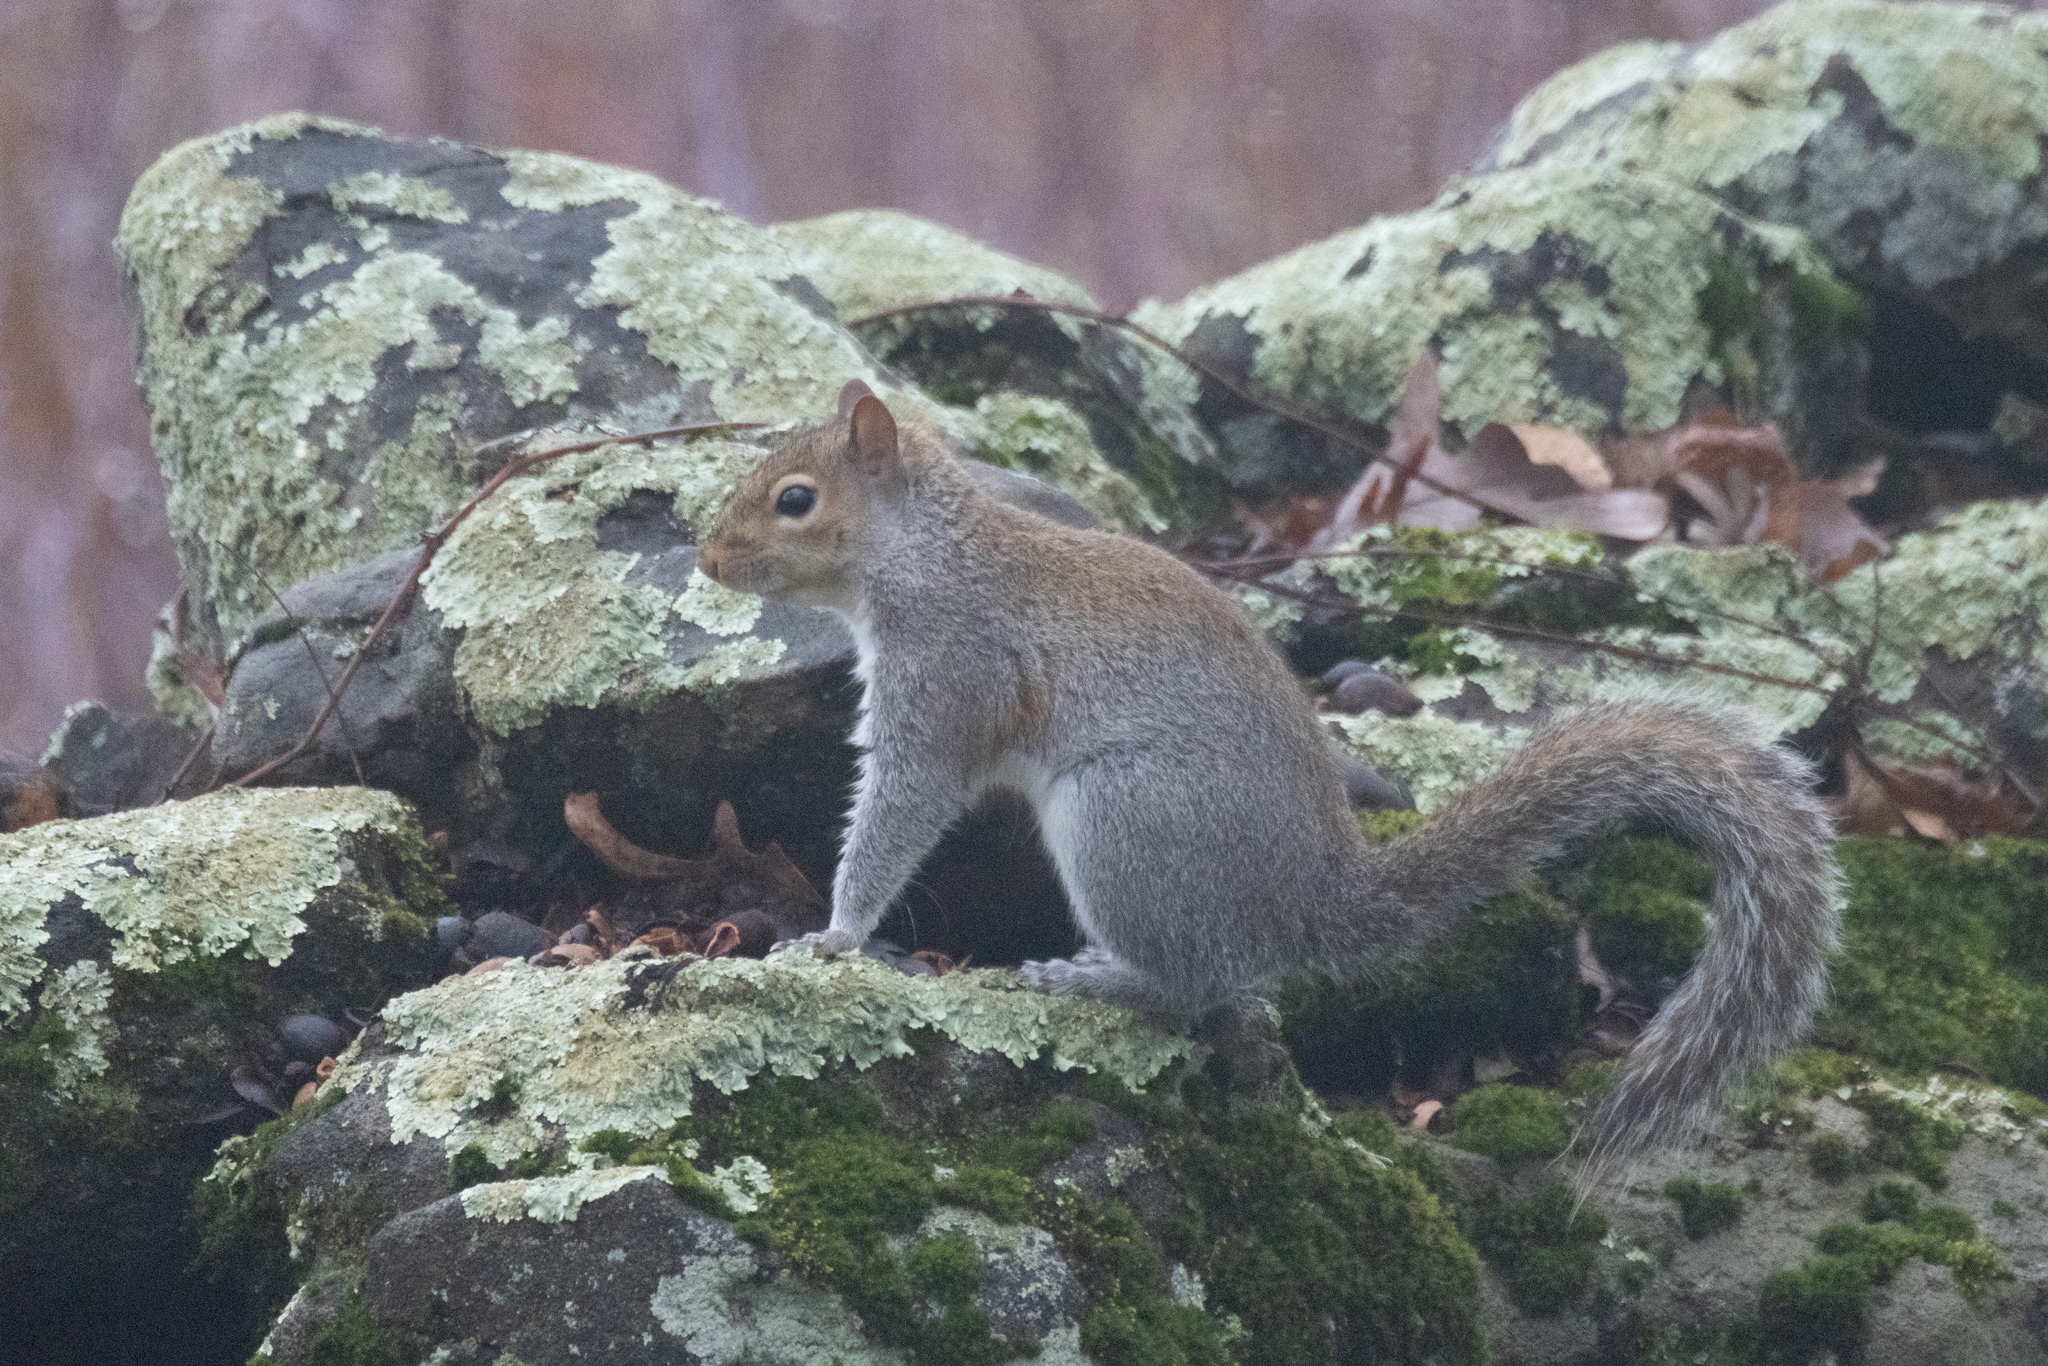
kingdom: Animalia
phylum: Chordata
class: Mammalia
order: Rodentia
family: Sciuridae
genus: Sciurus
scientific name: Sciurus carolinensis
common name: Eastern gray squirrel
